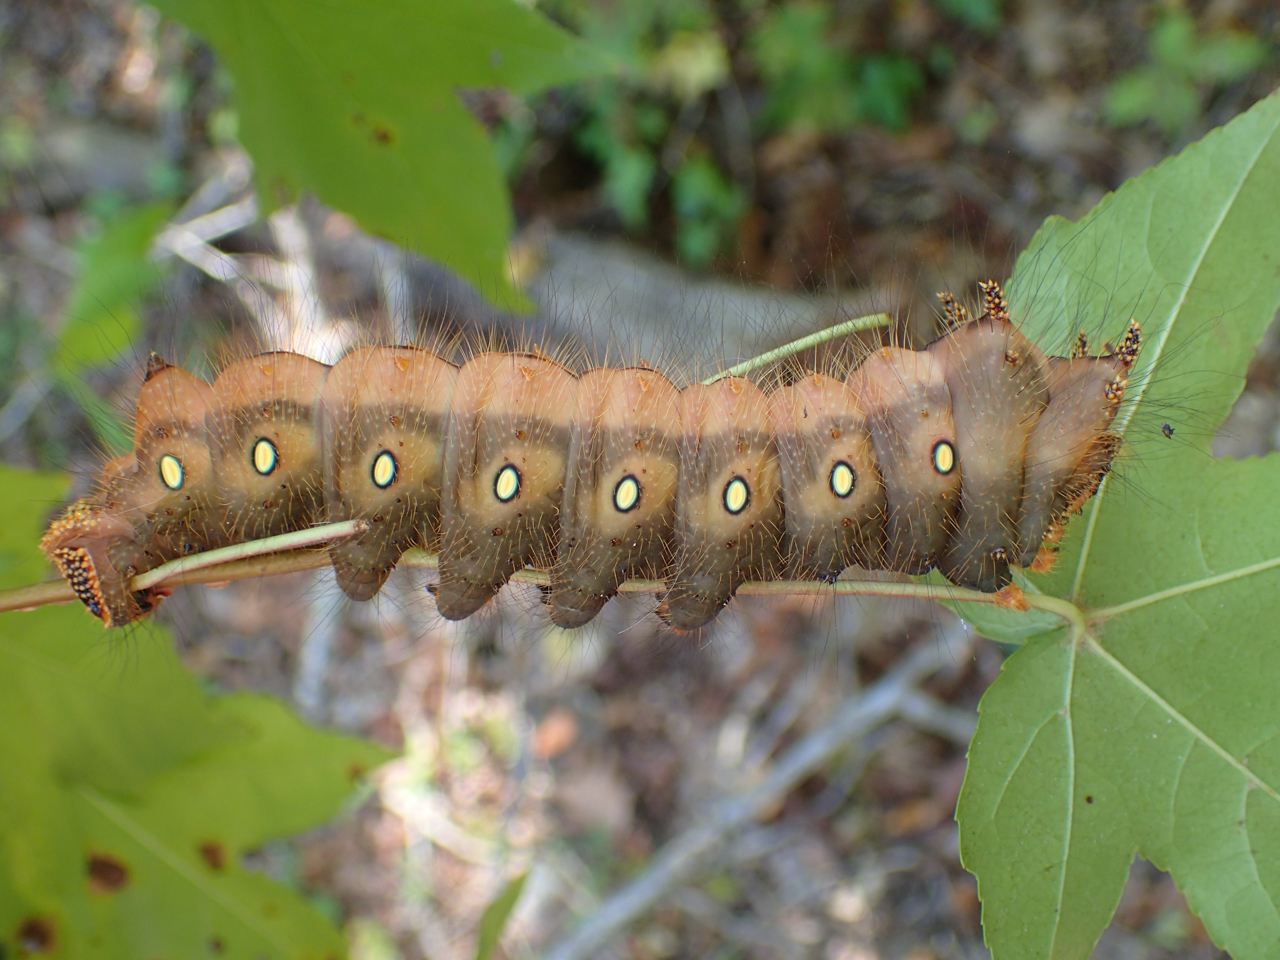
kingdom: Animalia
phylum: Arthropoda
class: Insecta
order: Lepidoptera
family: Saturniidae
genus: Eacles
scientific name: Eacles imperialis
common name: Imperial moth
